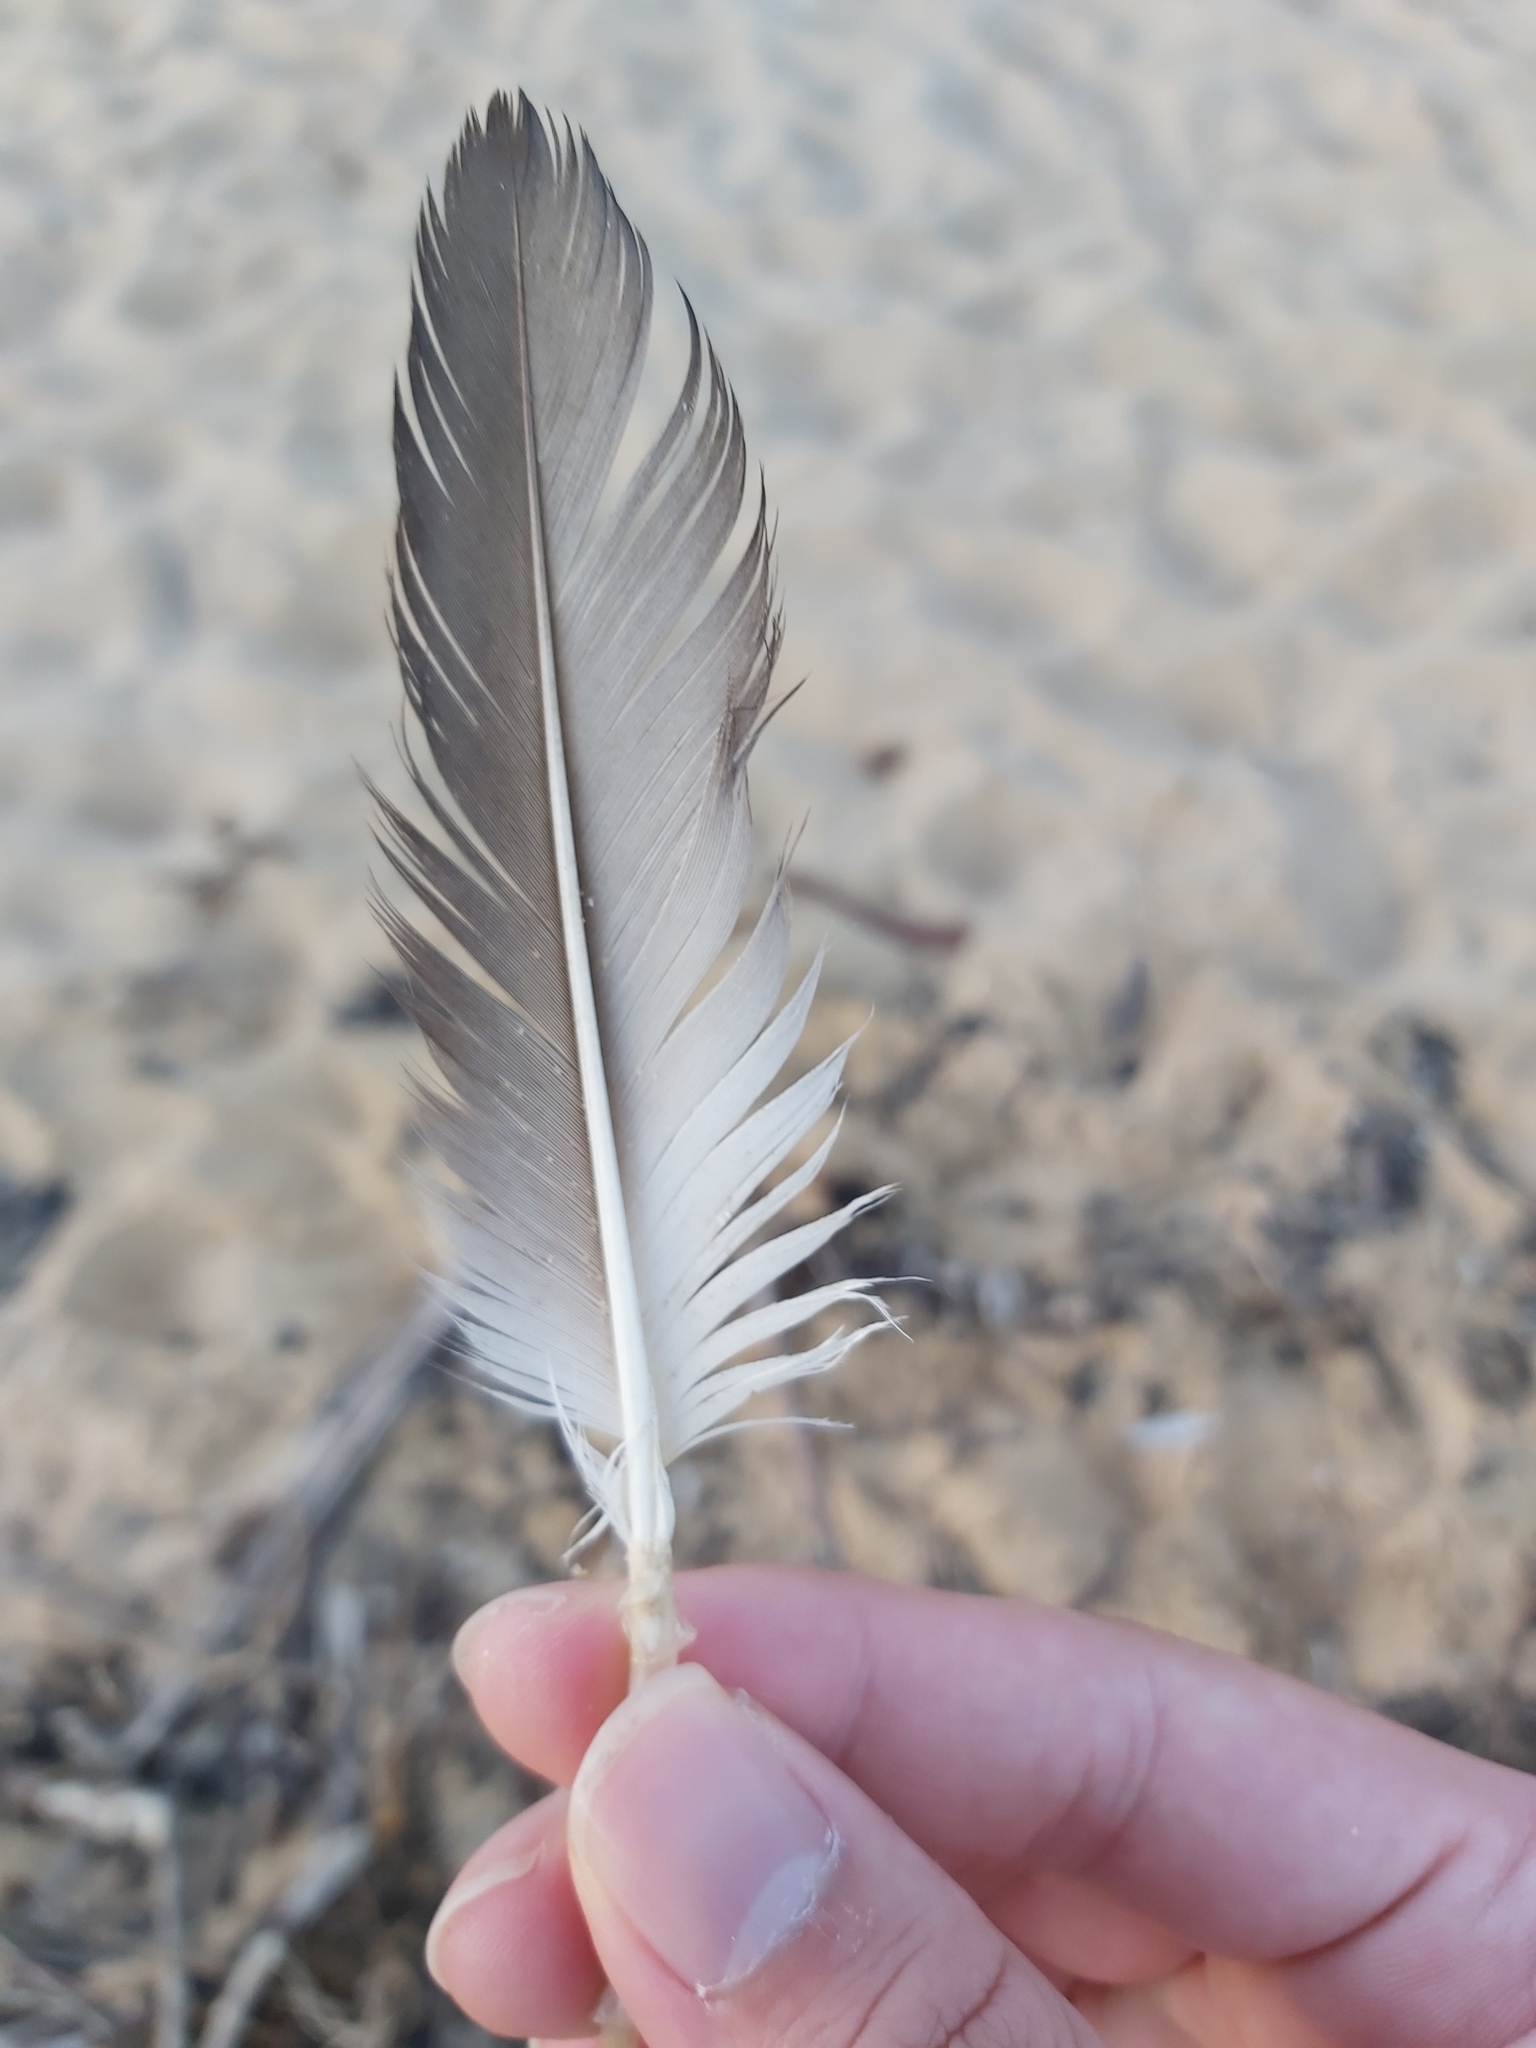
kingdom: Animalia
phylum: Chordata
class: Aves
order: Suliformes
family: Sulidae
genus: Morus
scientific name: Morus serrator
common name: Australasian gannet
